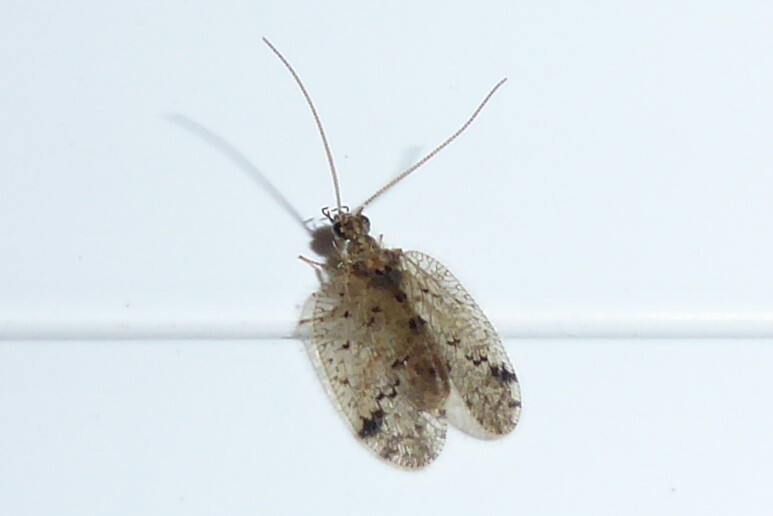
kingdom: Animalia
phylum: Arthropoda
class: Insecta
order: Neuroptera
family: Hemerobiidae
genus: Psectra
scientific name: Psectra nakaharai
